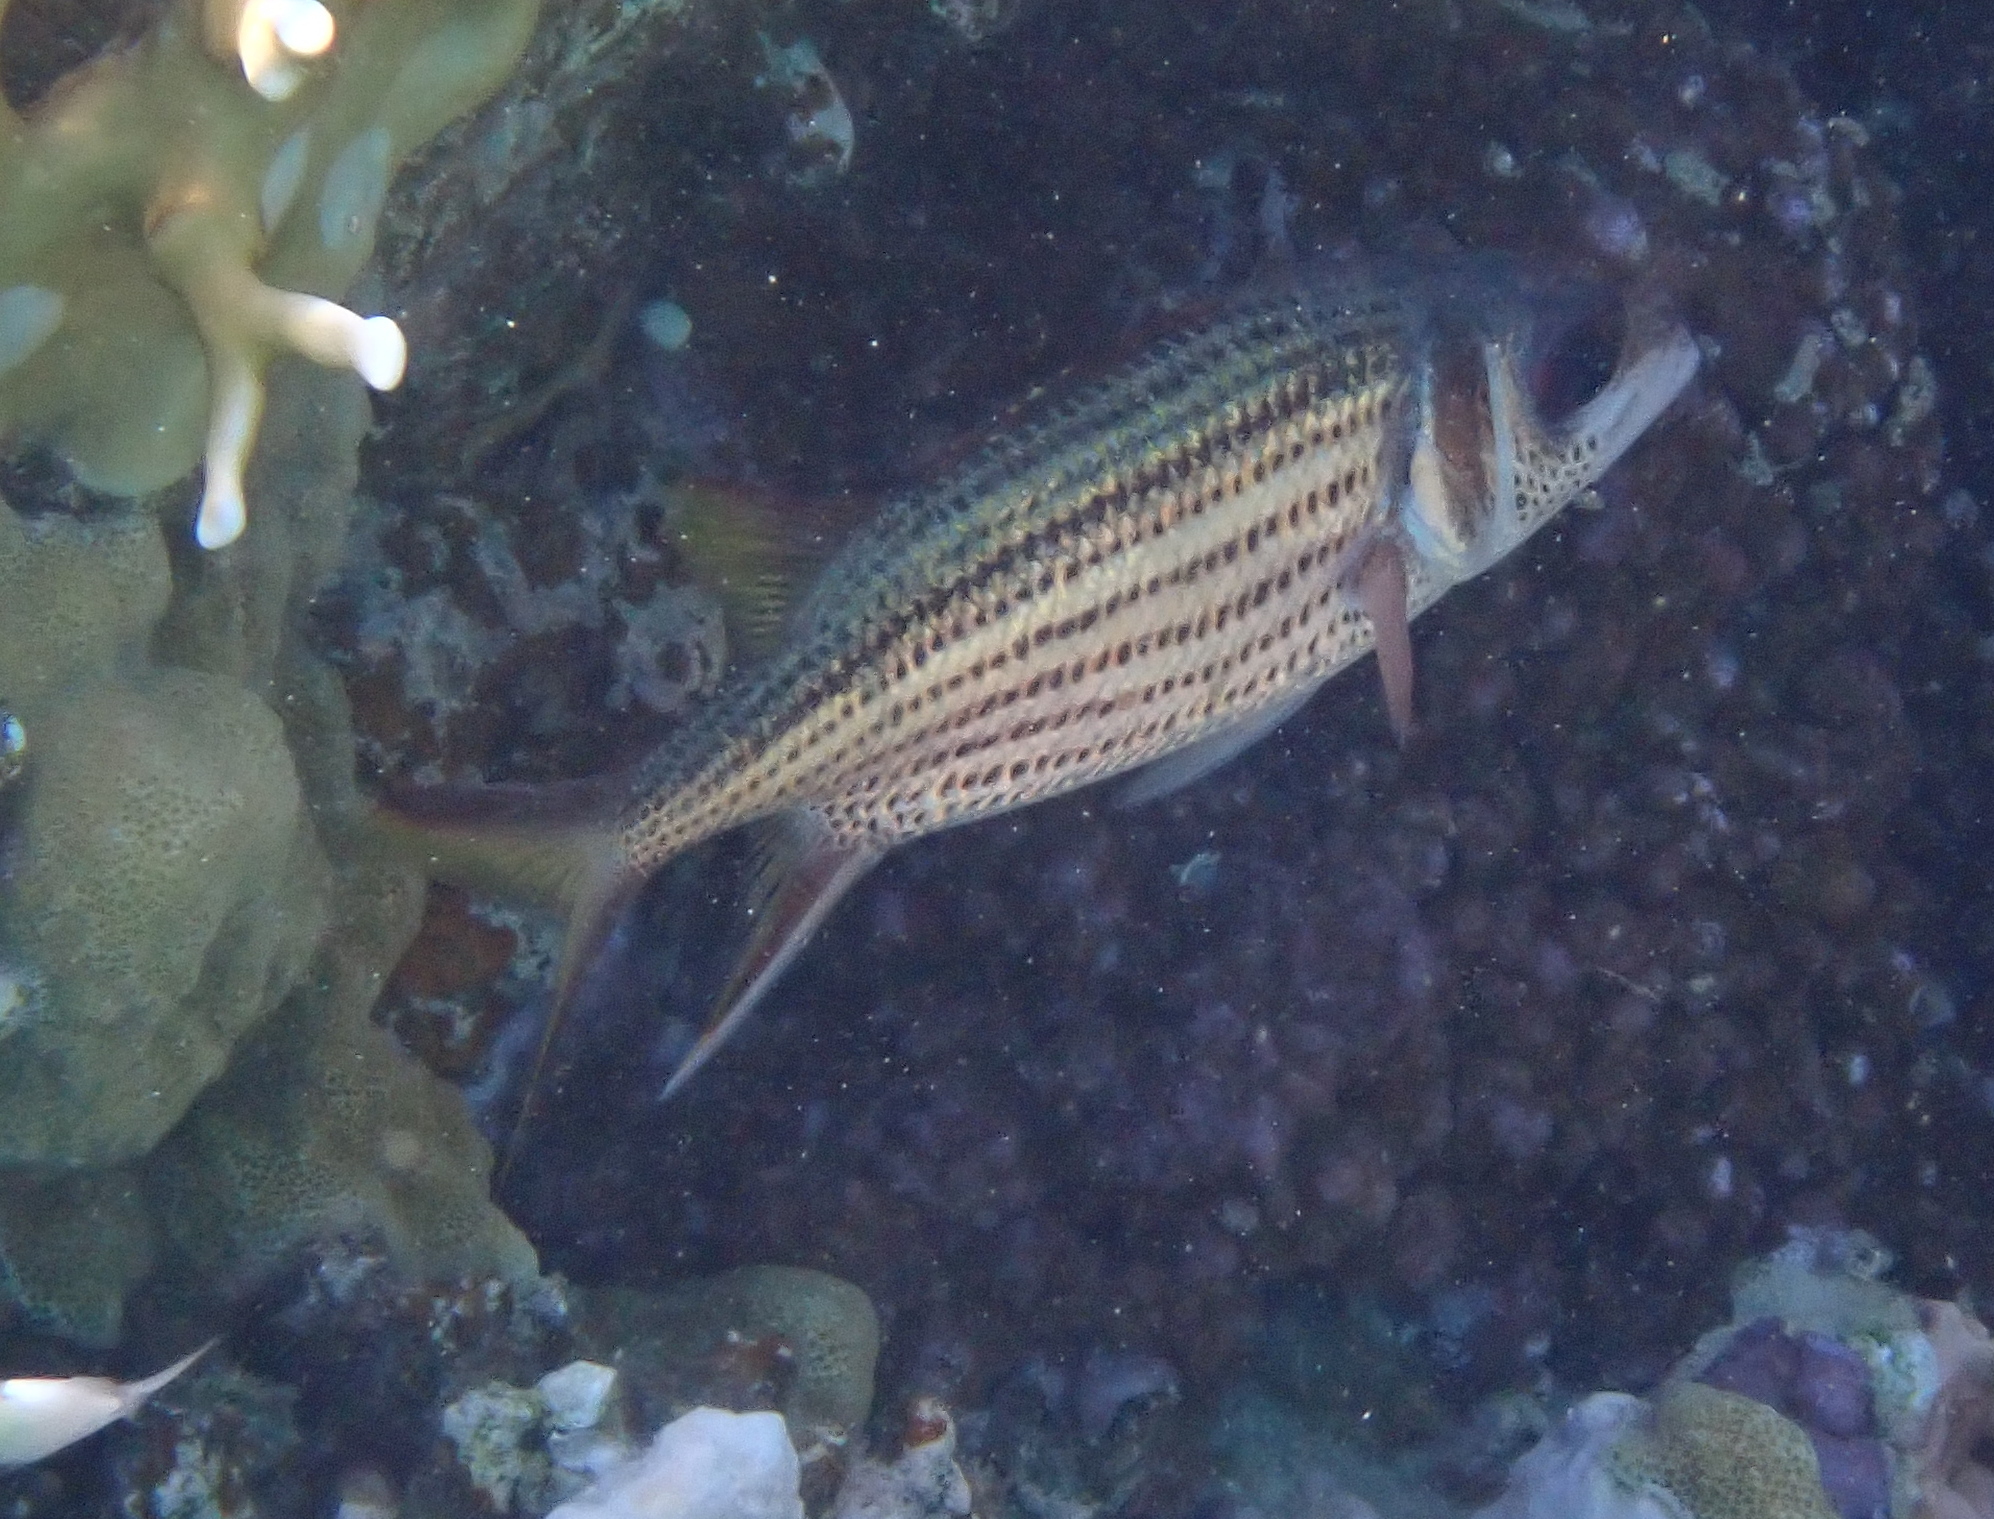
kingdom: Animalia
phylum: Chordata
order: Beryciformes
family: Holocentridae
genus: Neoniphon
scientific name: Neoniphon sammara
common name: Sammara squirrelfish
